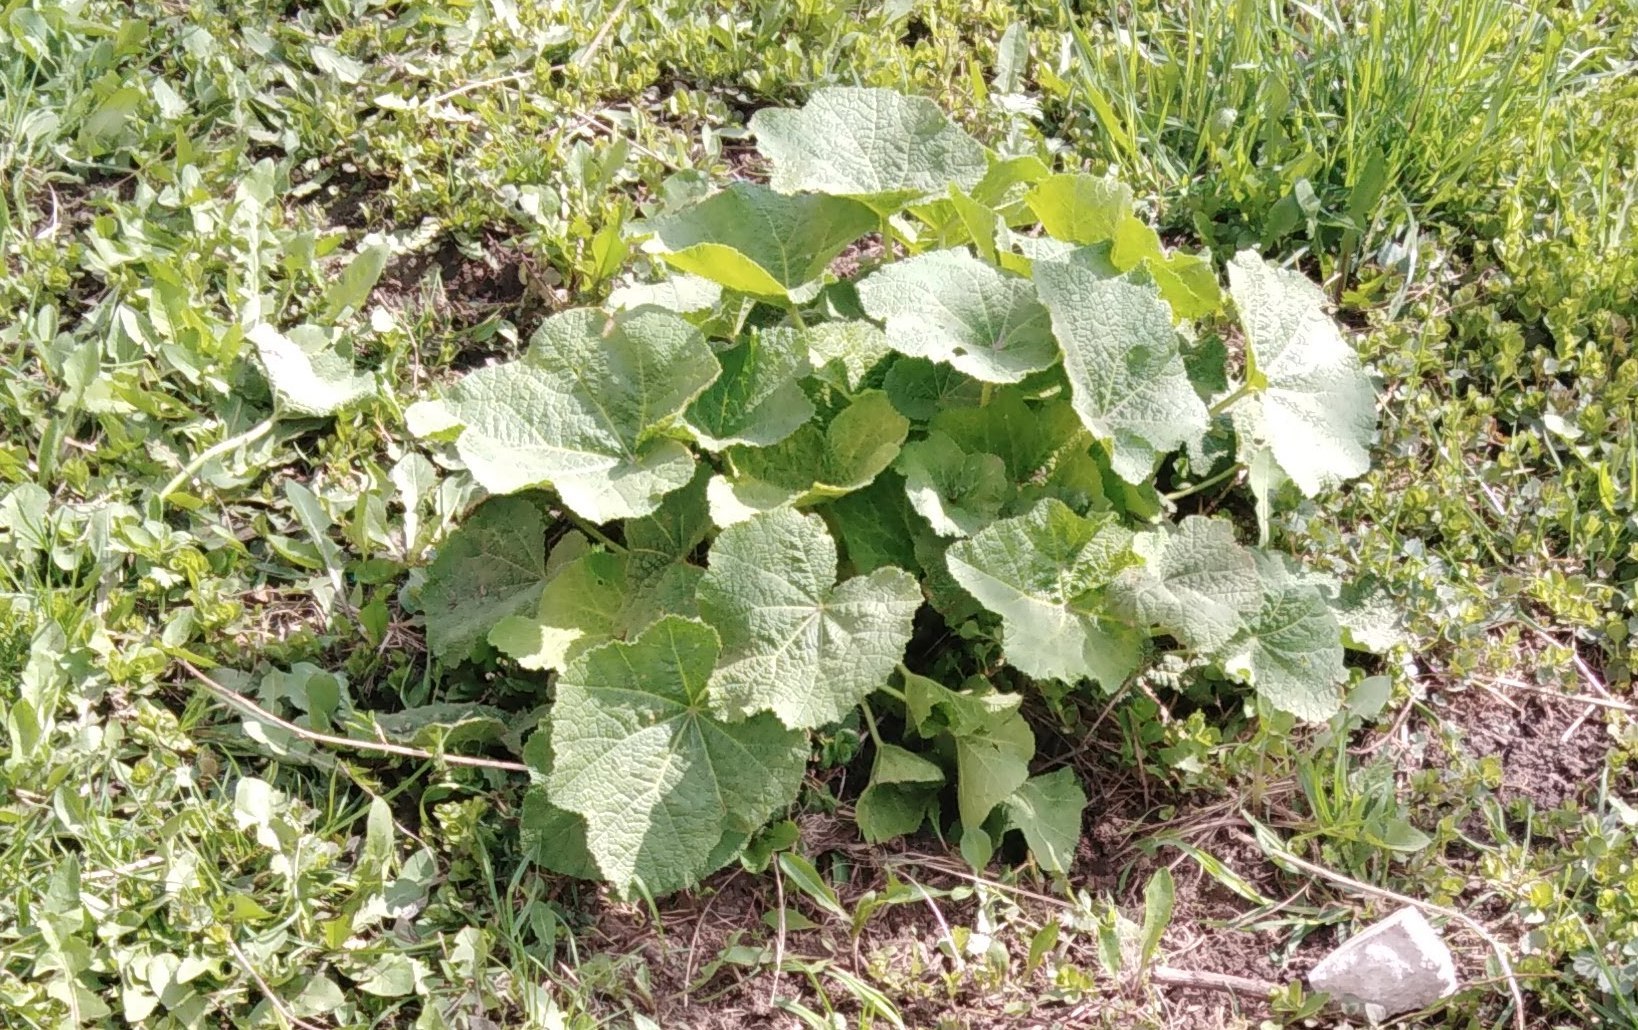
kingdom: Plantae
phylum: Tracheophyta
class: Magnoliopsida
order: Malvales
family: Malvaceae
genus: Alcea
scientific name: Alcea rosea
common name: Hollyhock
